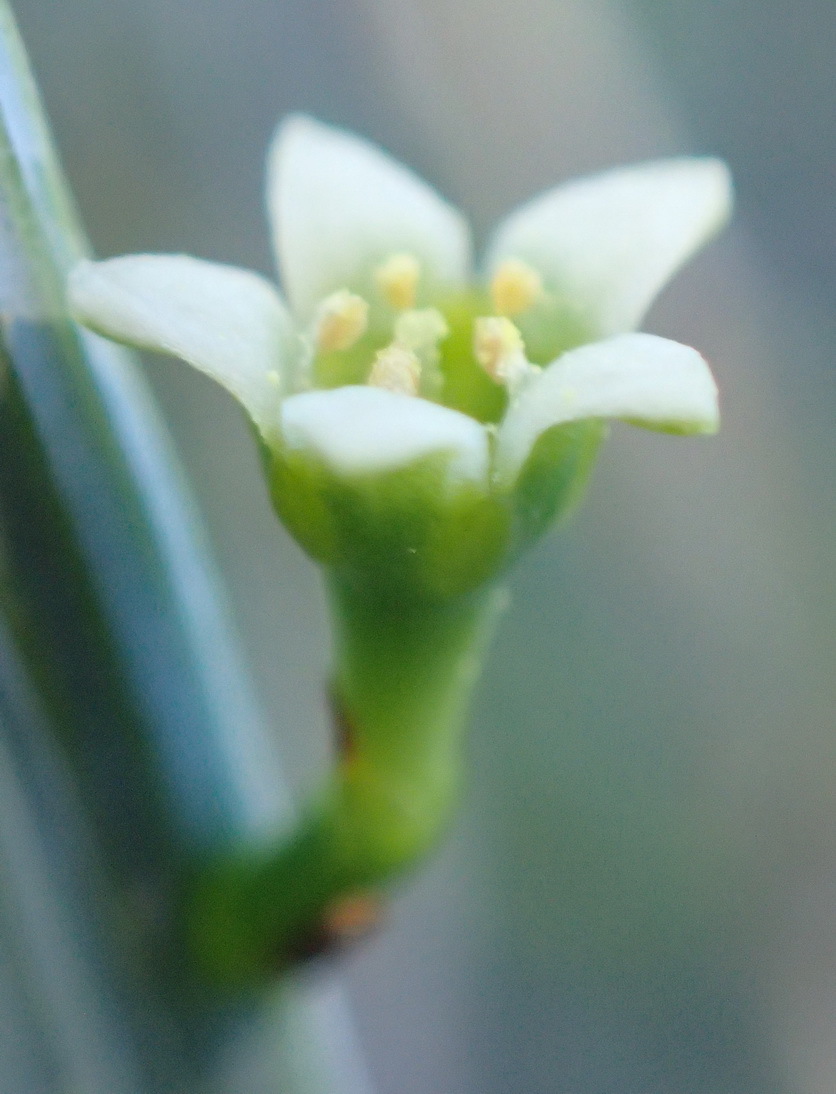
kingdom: Plantae
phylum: Tracheophyta
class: Magnoliopsida
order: Santalales
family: Thesiaceae
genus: Lacomucinaea
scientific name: Lacomucinaea lineata
